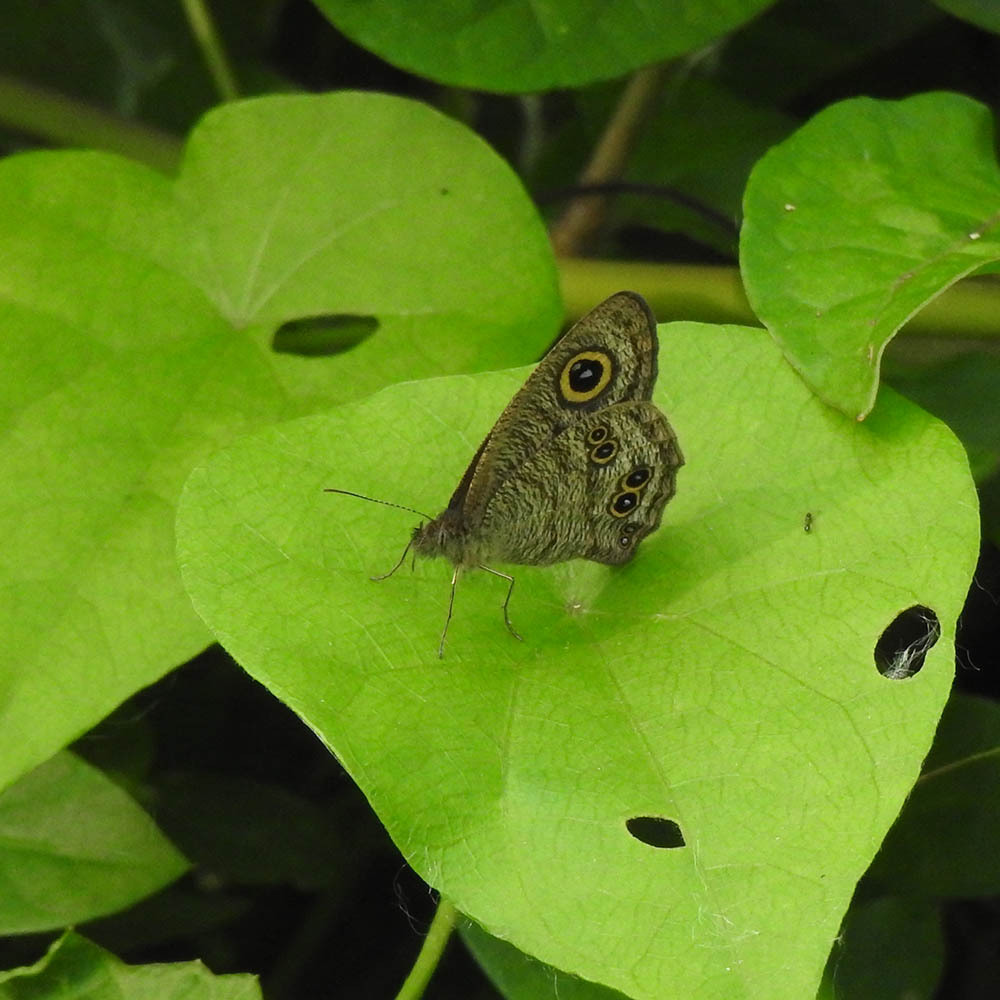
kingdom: Animalia
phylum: Arthropoda
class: Insecta
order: Lepidoptera
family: Nymphalidae
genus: Ypthima
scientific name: Ypthima baldus
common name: Common five-ring
